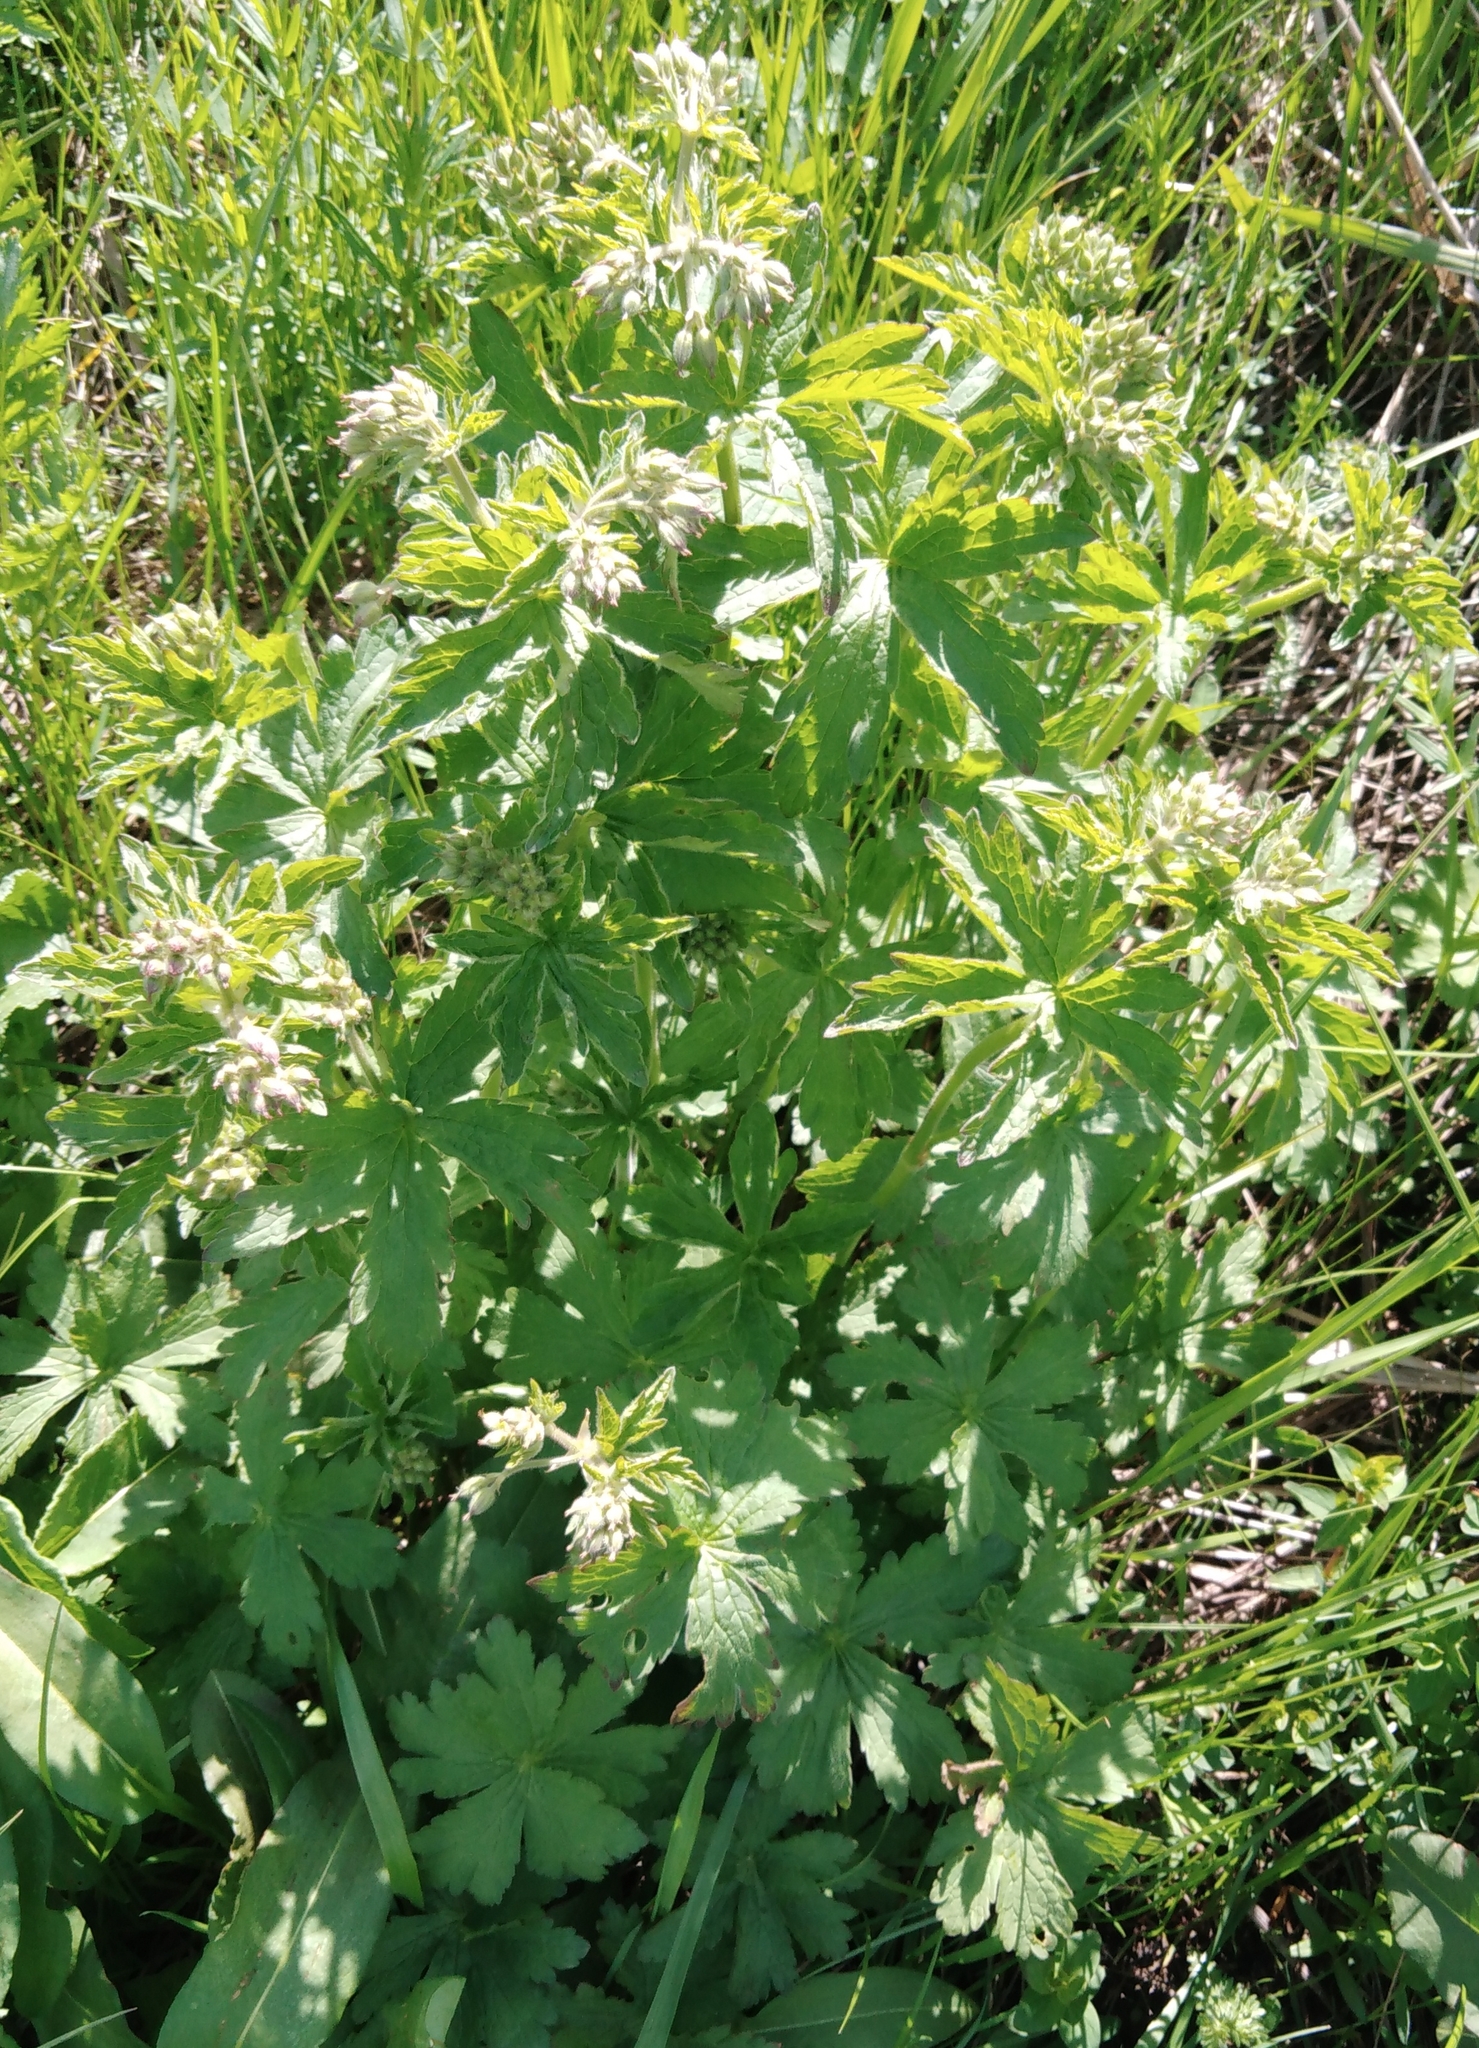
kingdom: Plantae
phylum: Tracheophyta
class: Magnoliopsida
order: Geraniales
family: Geraniaceae
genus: Geranium
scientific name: Geranium sylvaticum
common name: Wood crane's-bill
